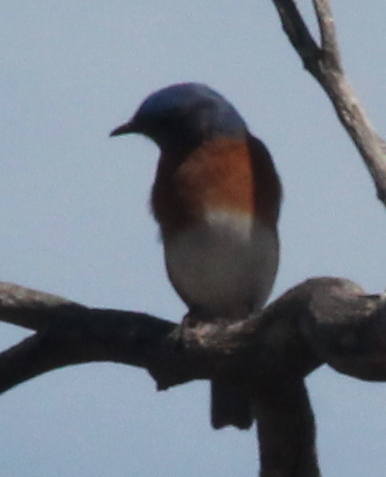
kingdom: Animalia
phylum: Chordata
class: Aves
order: Passeriformes
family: Turdidae
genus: Sialia
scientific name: Sialia sialis
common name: Eastern bluebird
